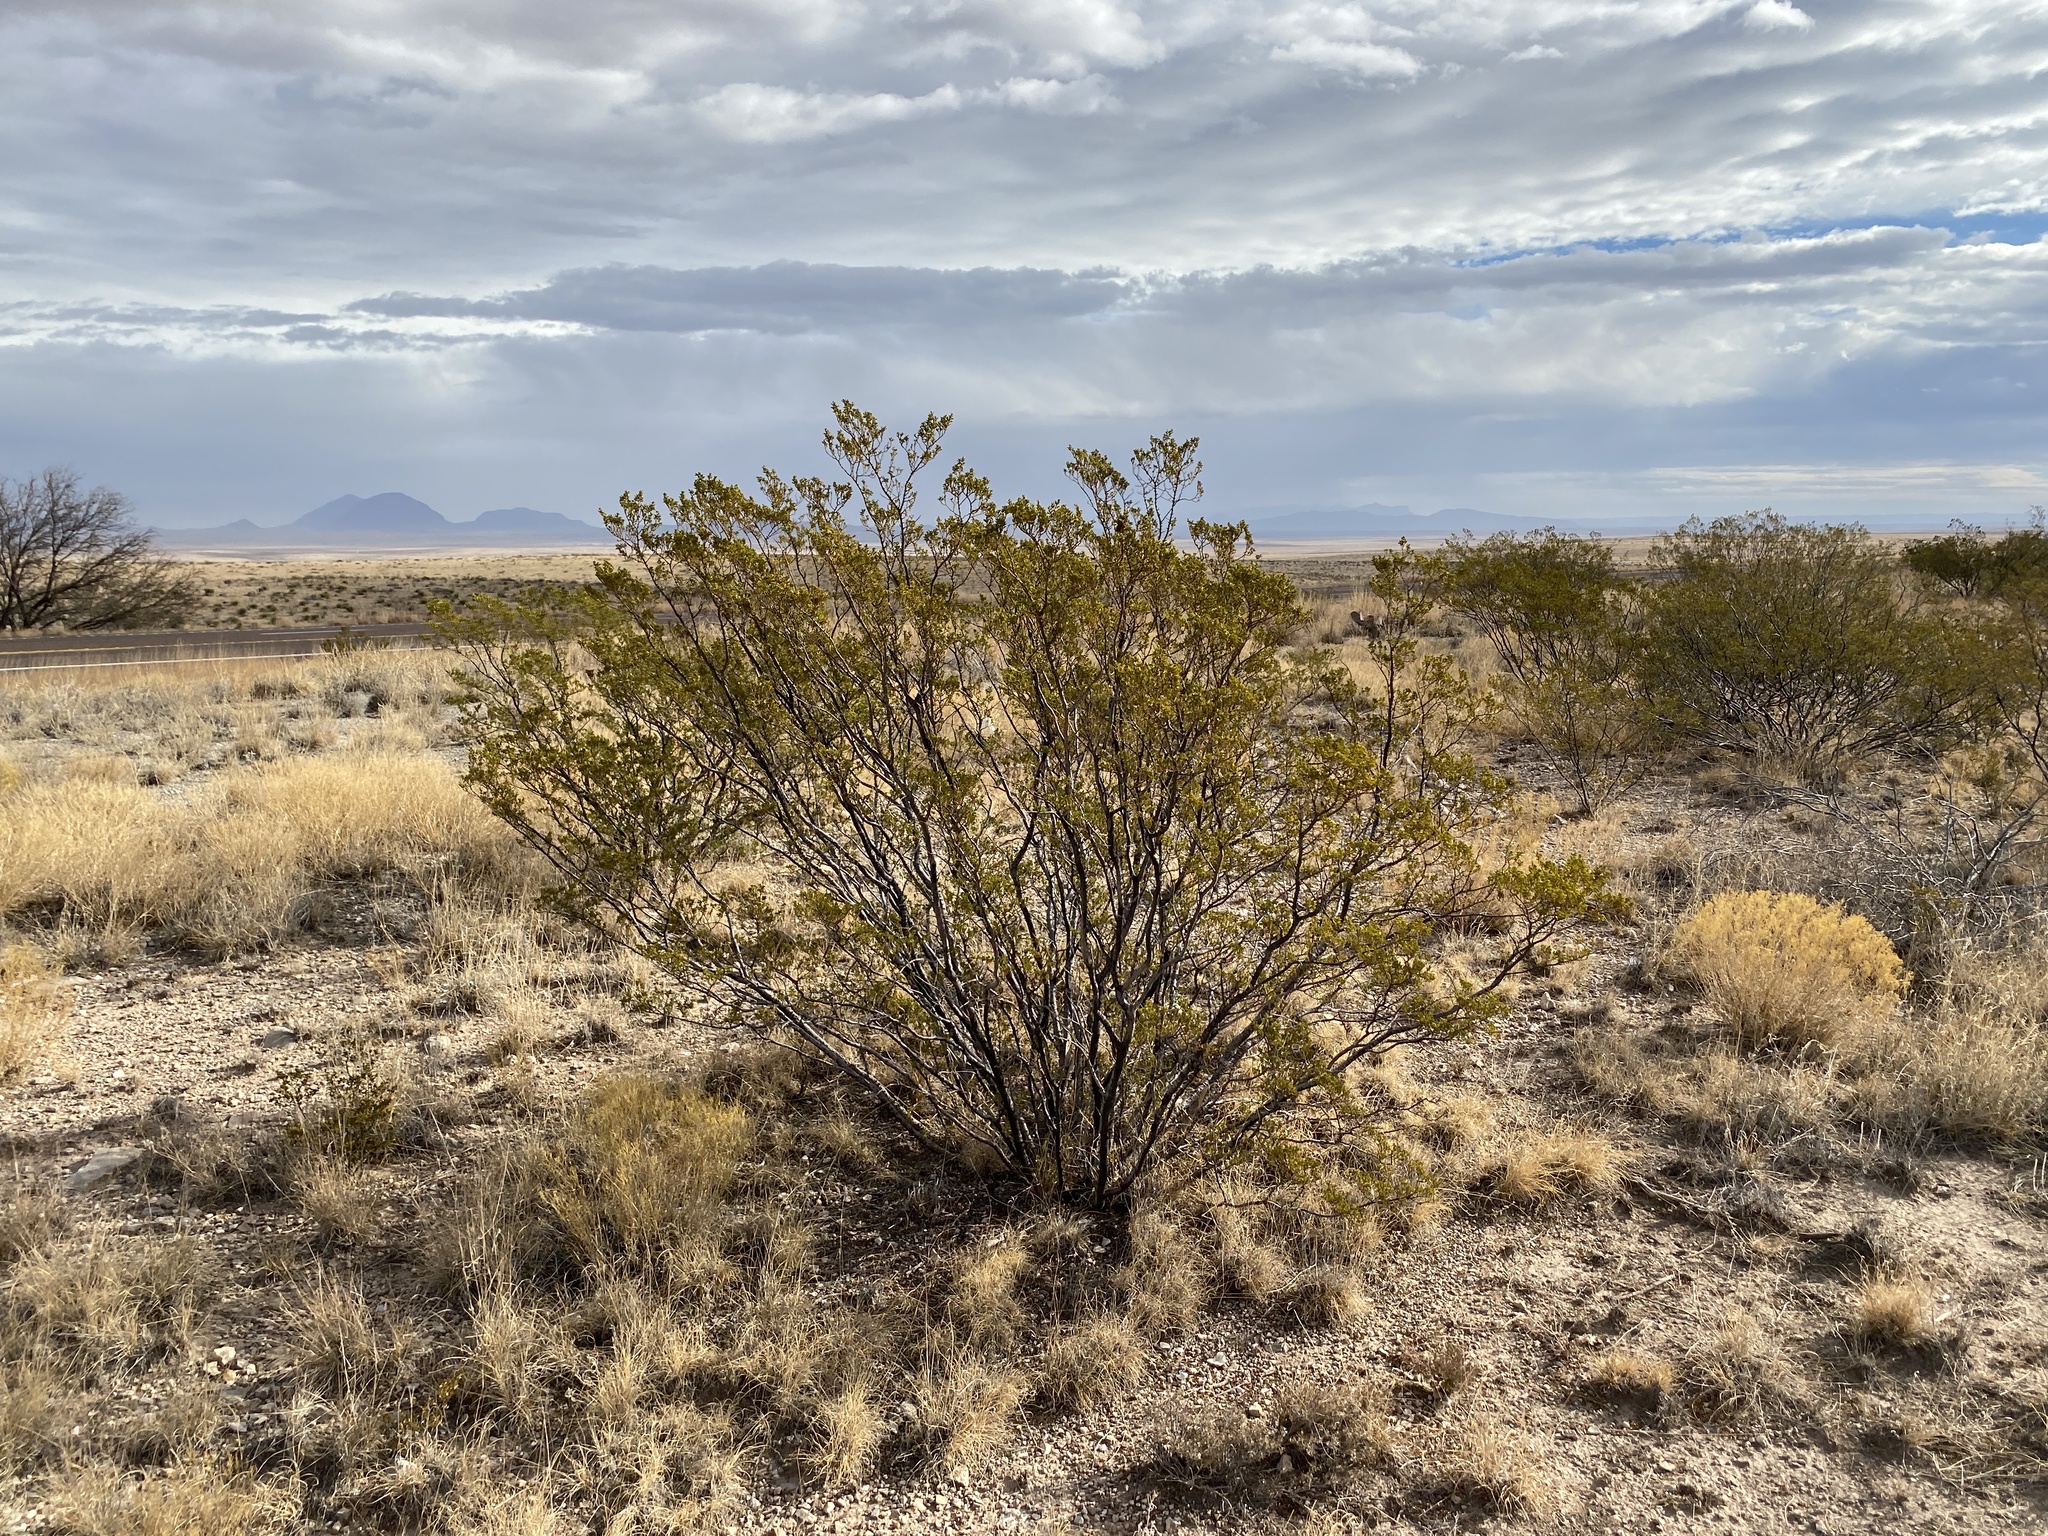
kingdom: Plantae
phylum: Tracheophyta
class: Magnoliopsida
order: Zygophyllales
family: Zygophyllaceae
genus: Larrea
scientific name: Larrea tridentata
